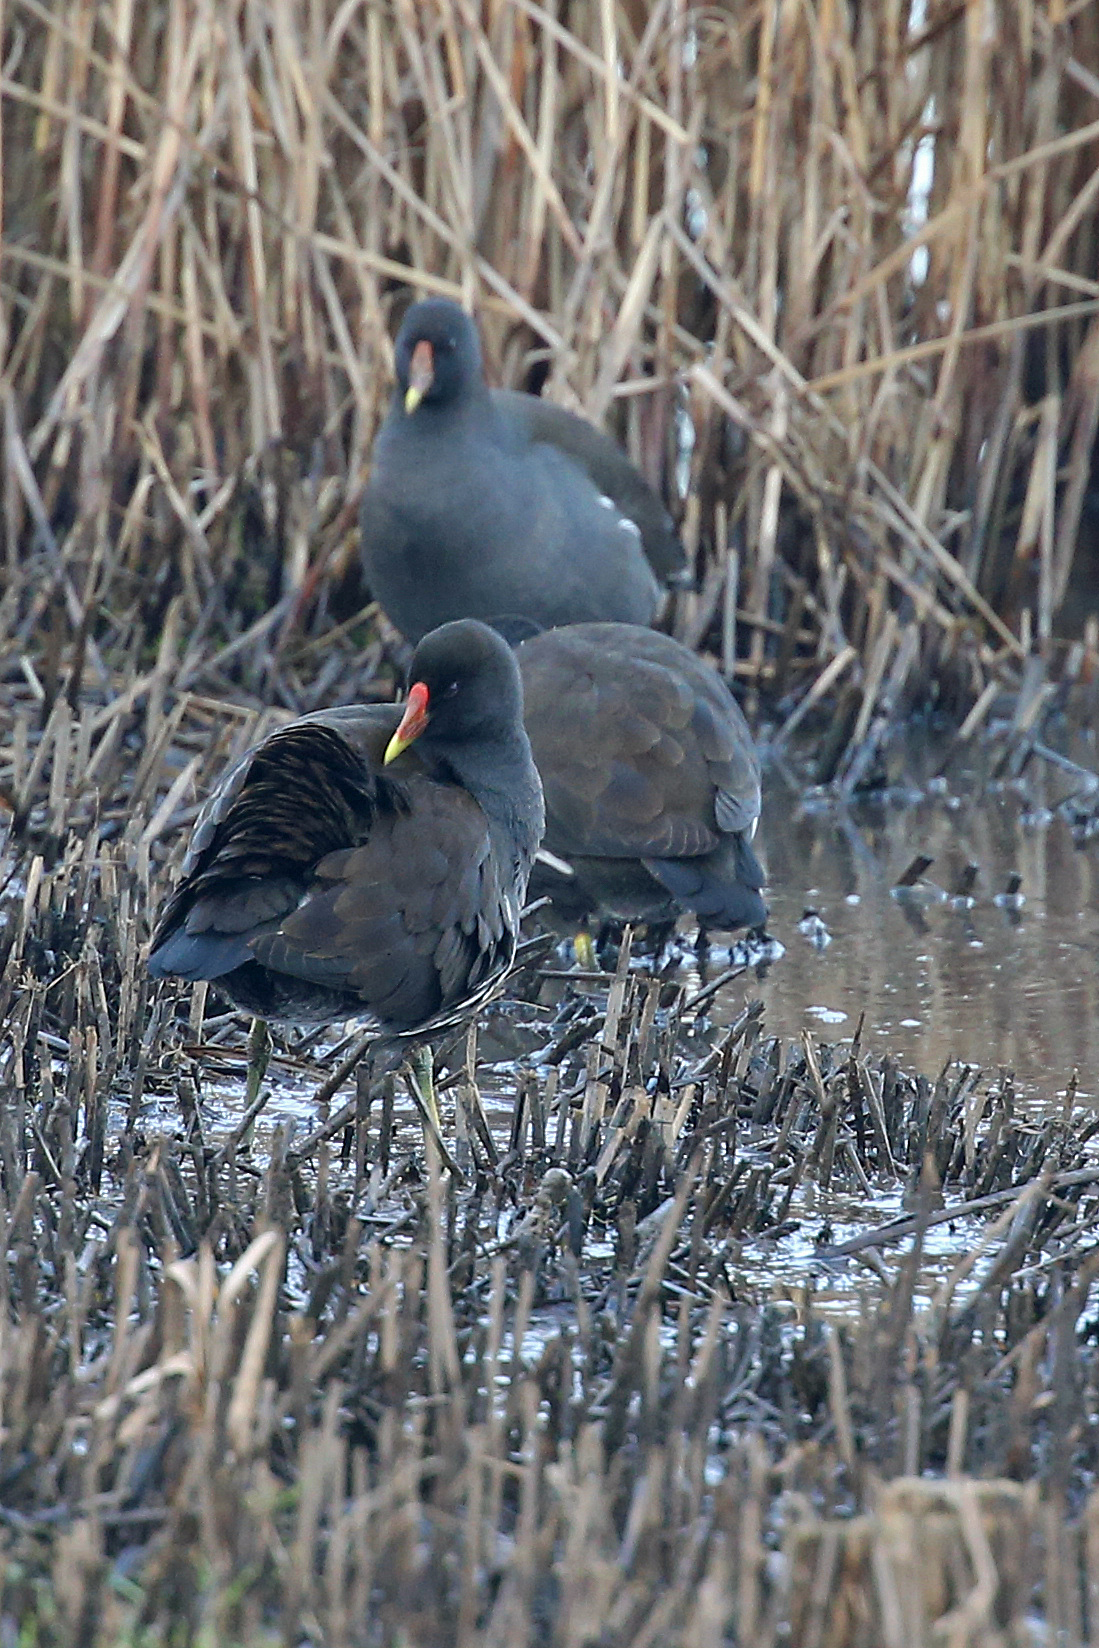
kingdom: Animalia
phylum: Chordata
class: Aves
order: Gruiformes
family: Rallidae
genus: Gallinula
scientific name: Gallinula chloropus
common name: Common moorhen
